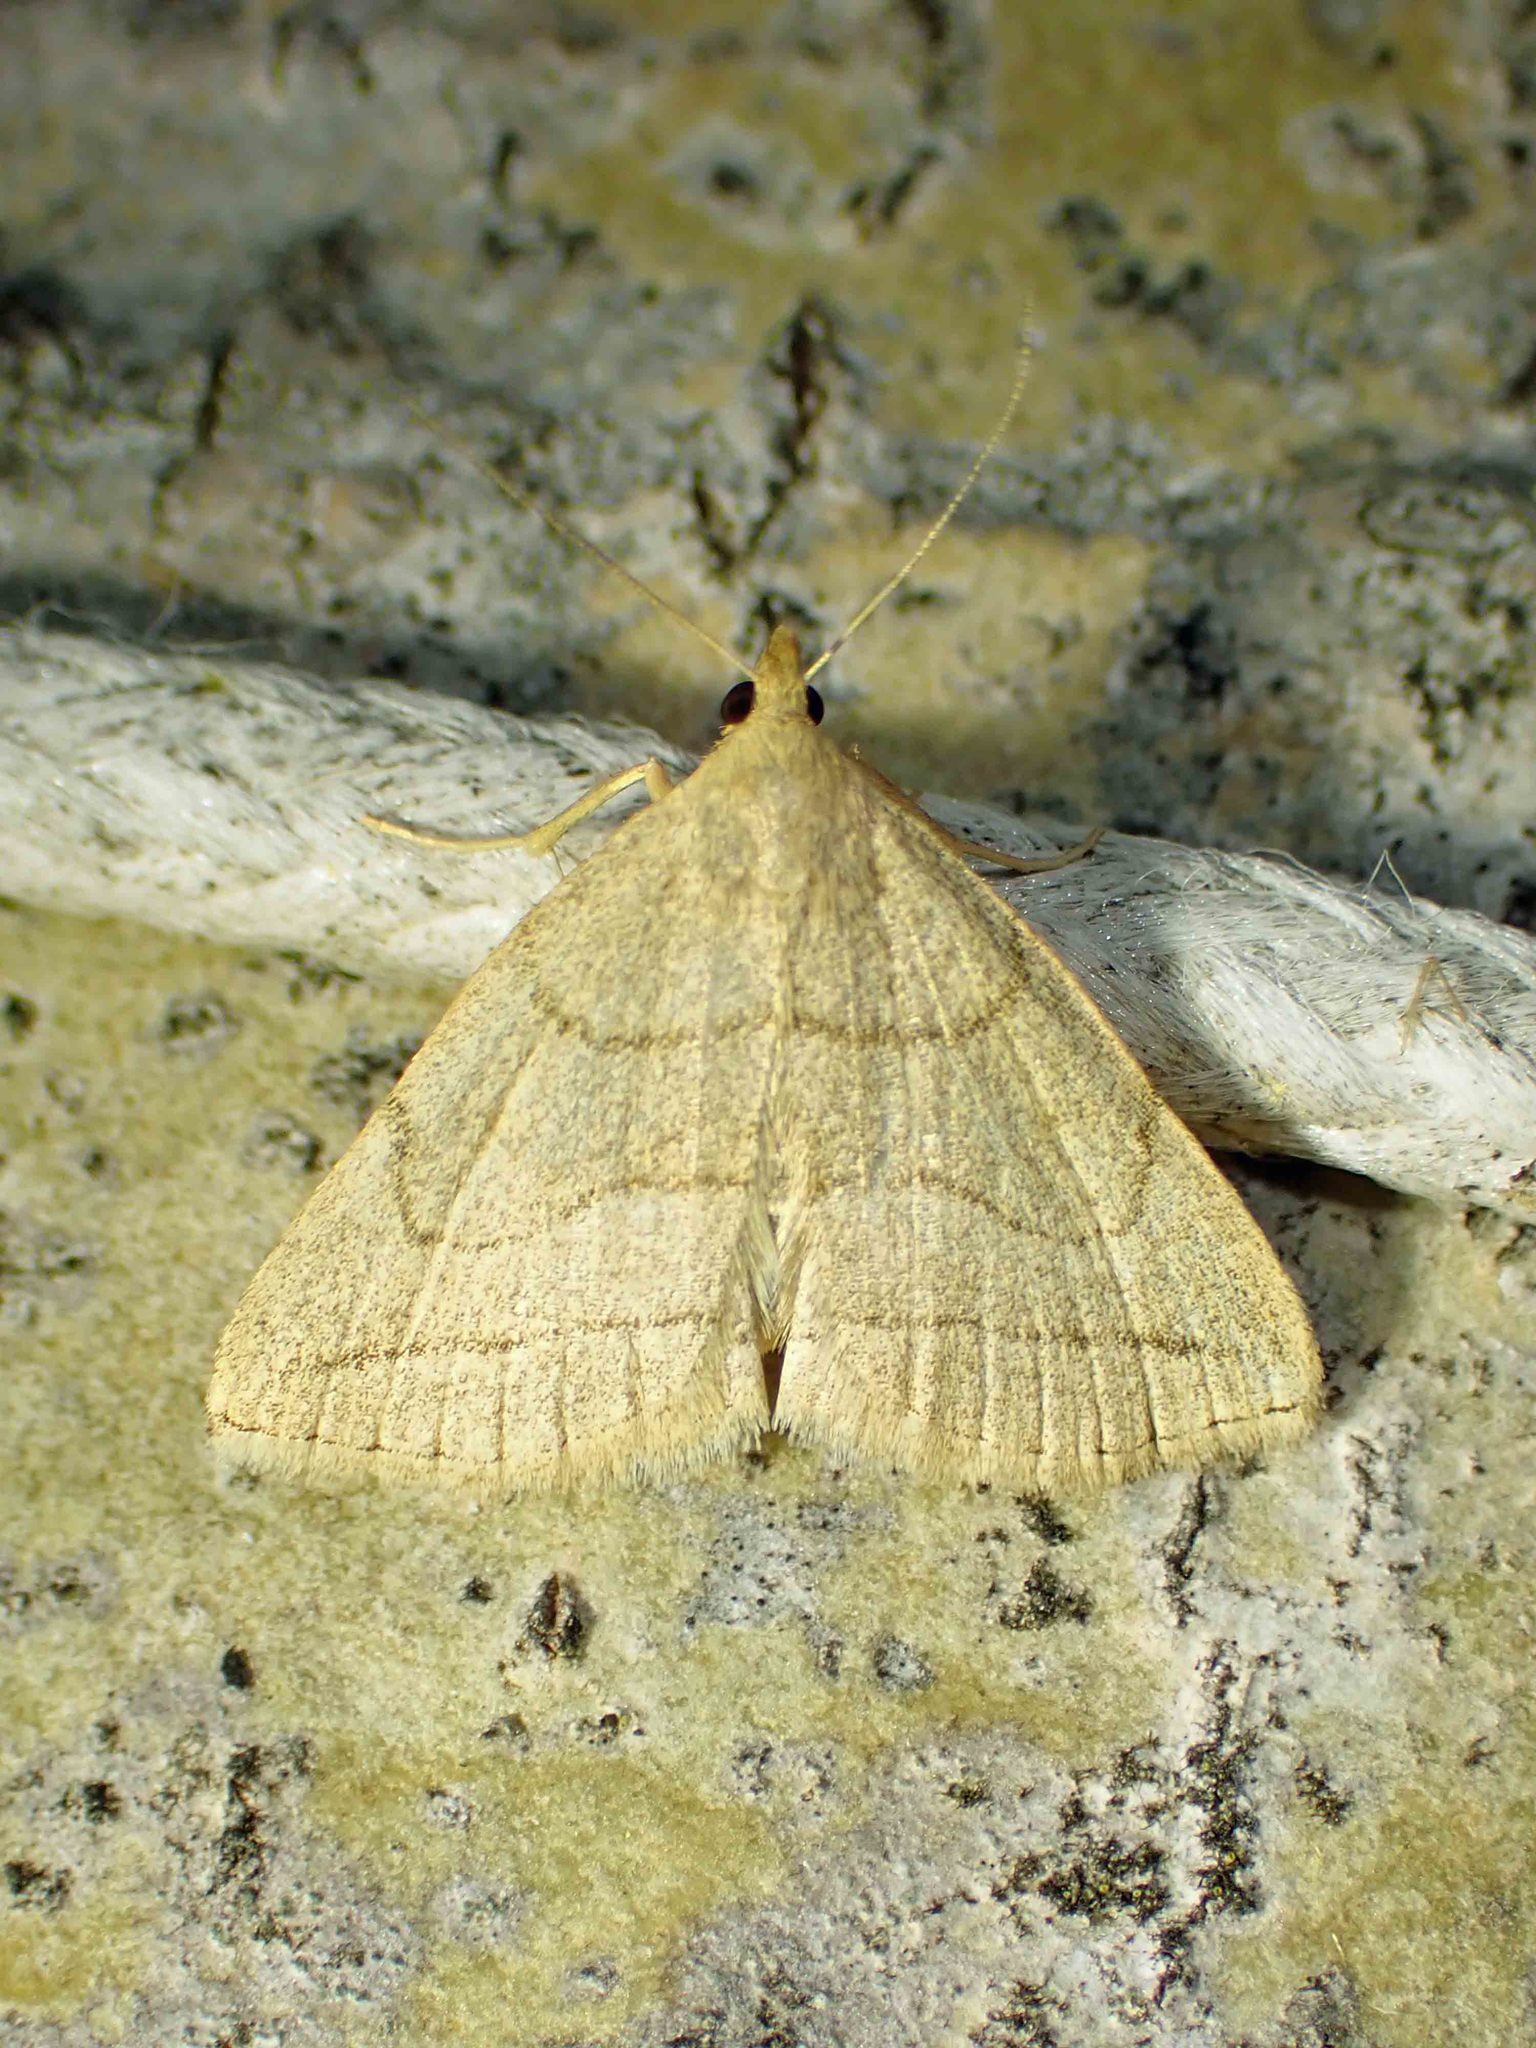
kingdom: Animalia
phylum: Arthropoda
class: Insecta
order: Lepidoptera
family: Erebidae
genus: Zanclognatha
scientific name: Zanclognatha pedipilalis
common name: Grayish fan-foot
